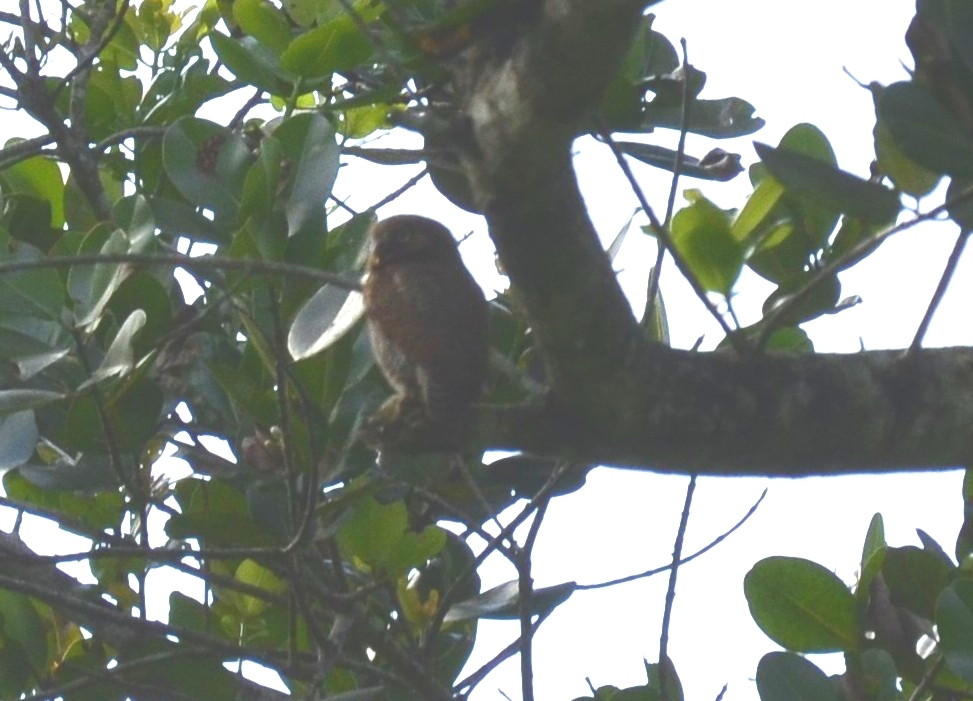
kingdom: Animalia
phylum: Chordata
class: Aves
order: Strigiformes
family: Strigidae
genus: Glaucidium
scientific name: Glaucidium radiatum
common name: Jungle owlet
